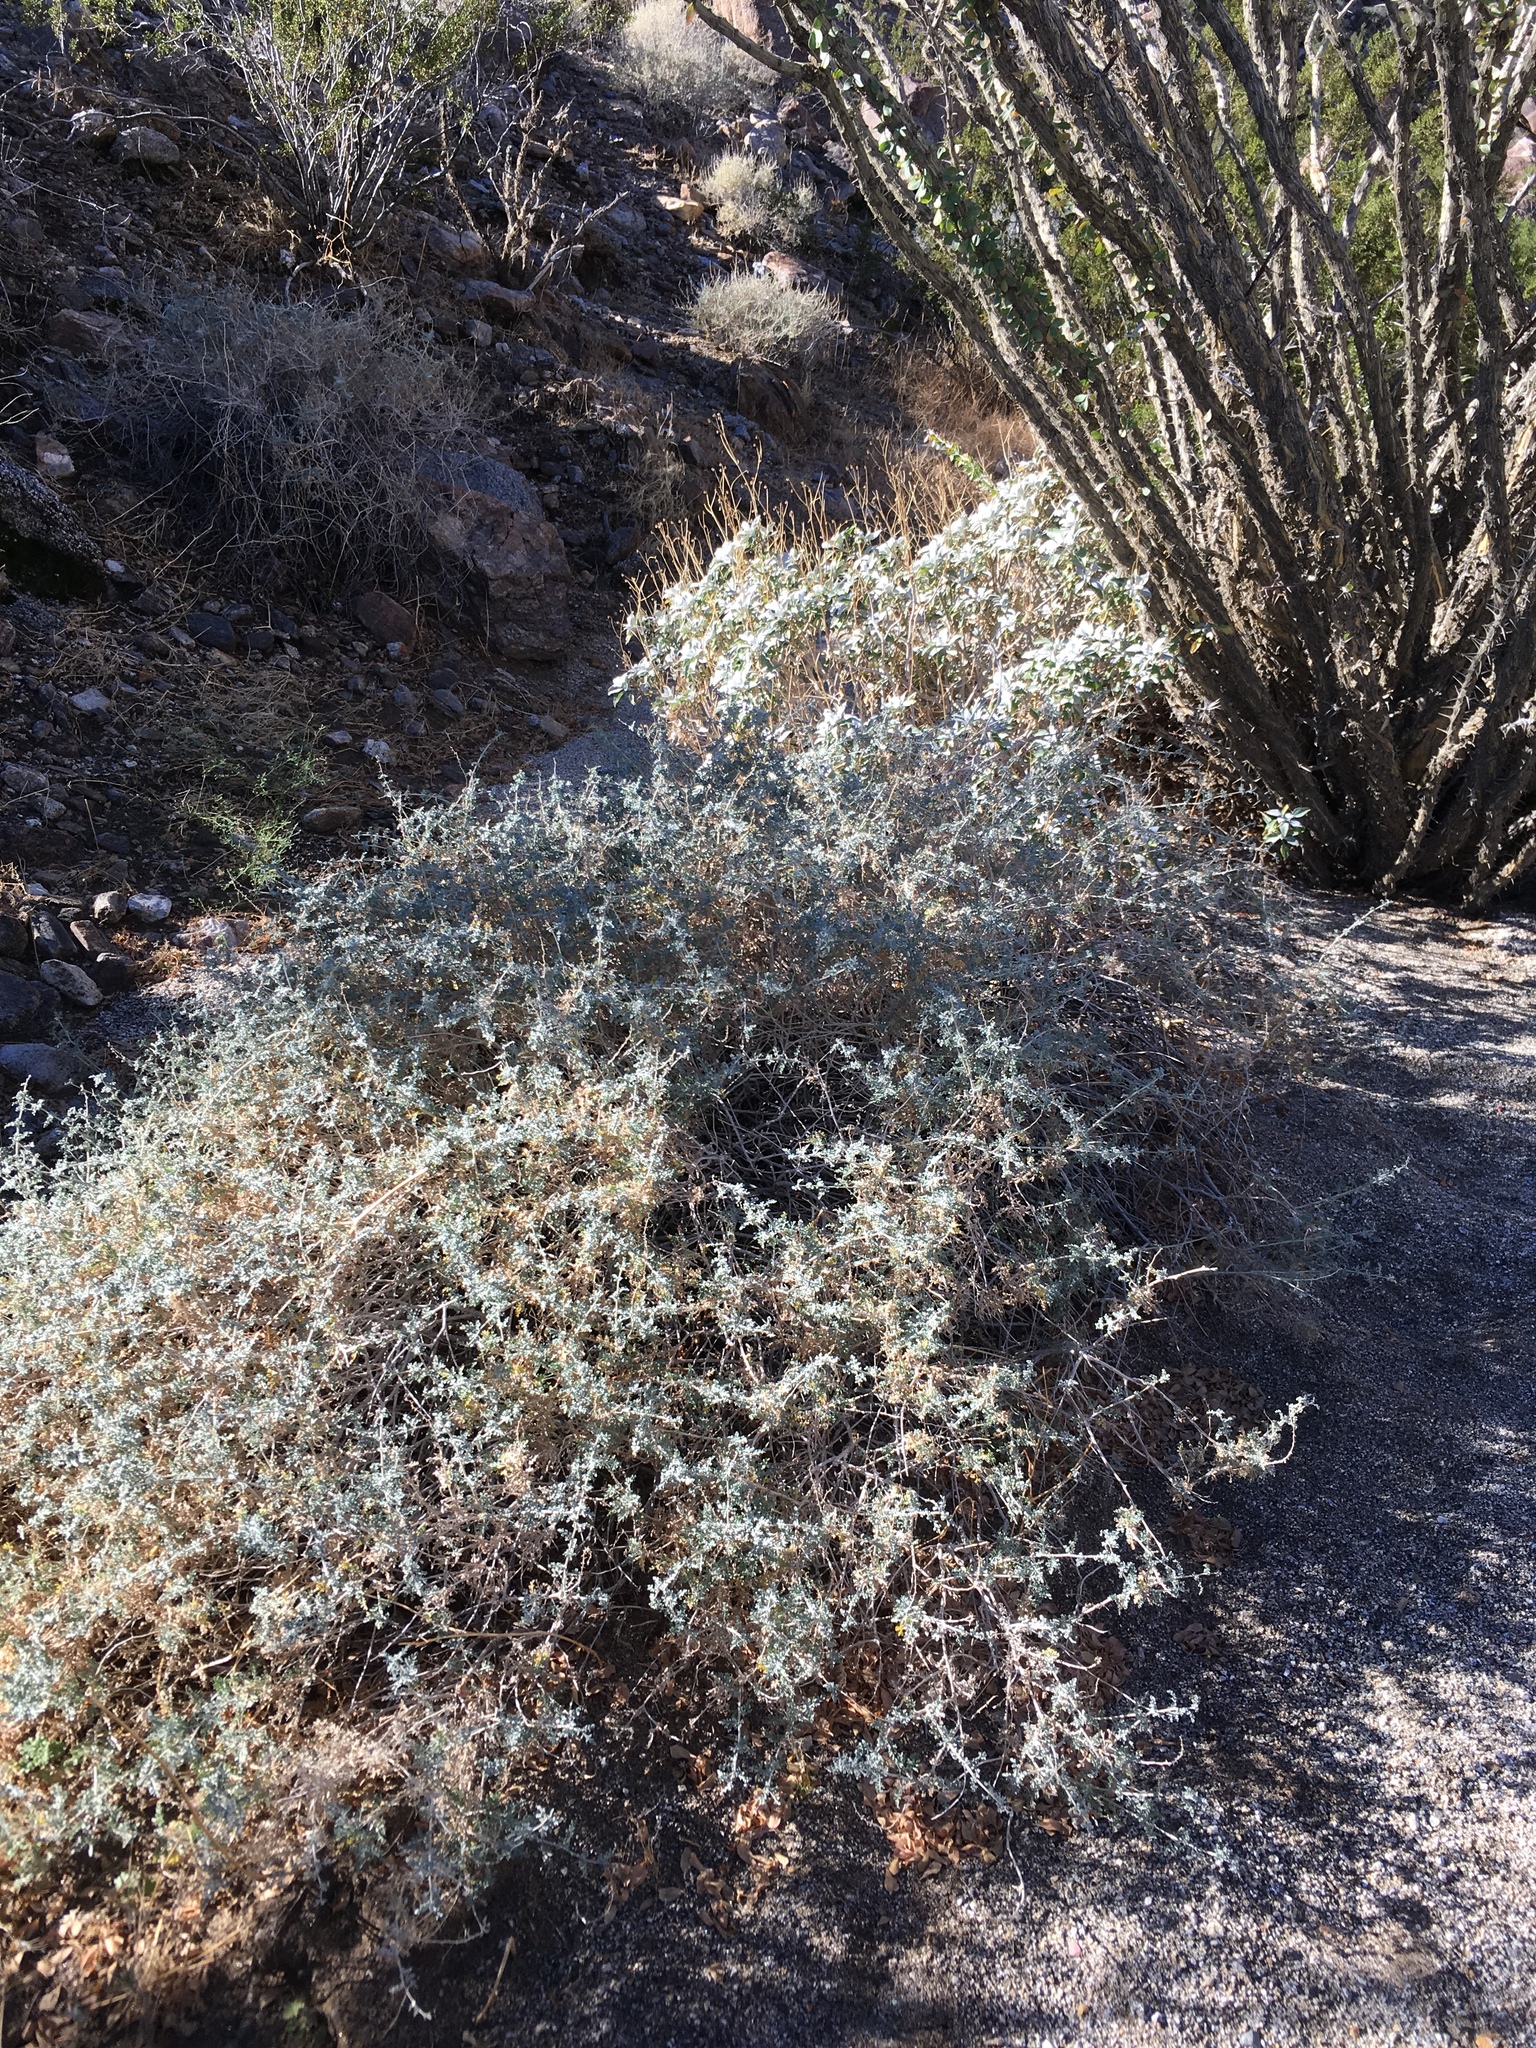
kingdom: Plantae
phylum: Tracheophyta
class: Magnoliopsida
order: Asterales
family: Asteraceae
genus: Ambrosia
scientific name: Ambrosia dumosa
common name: Bur-sage
